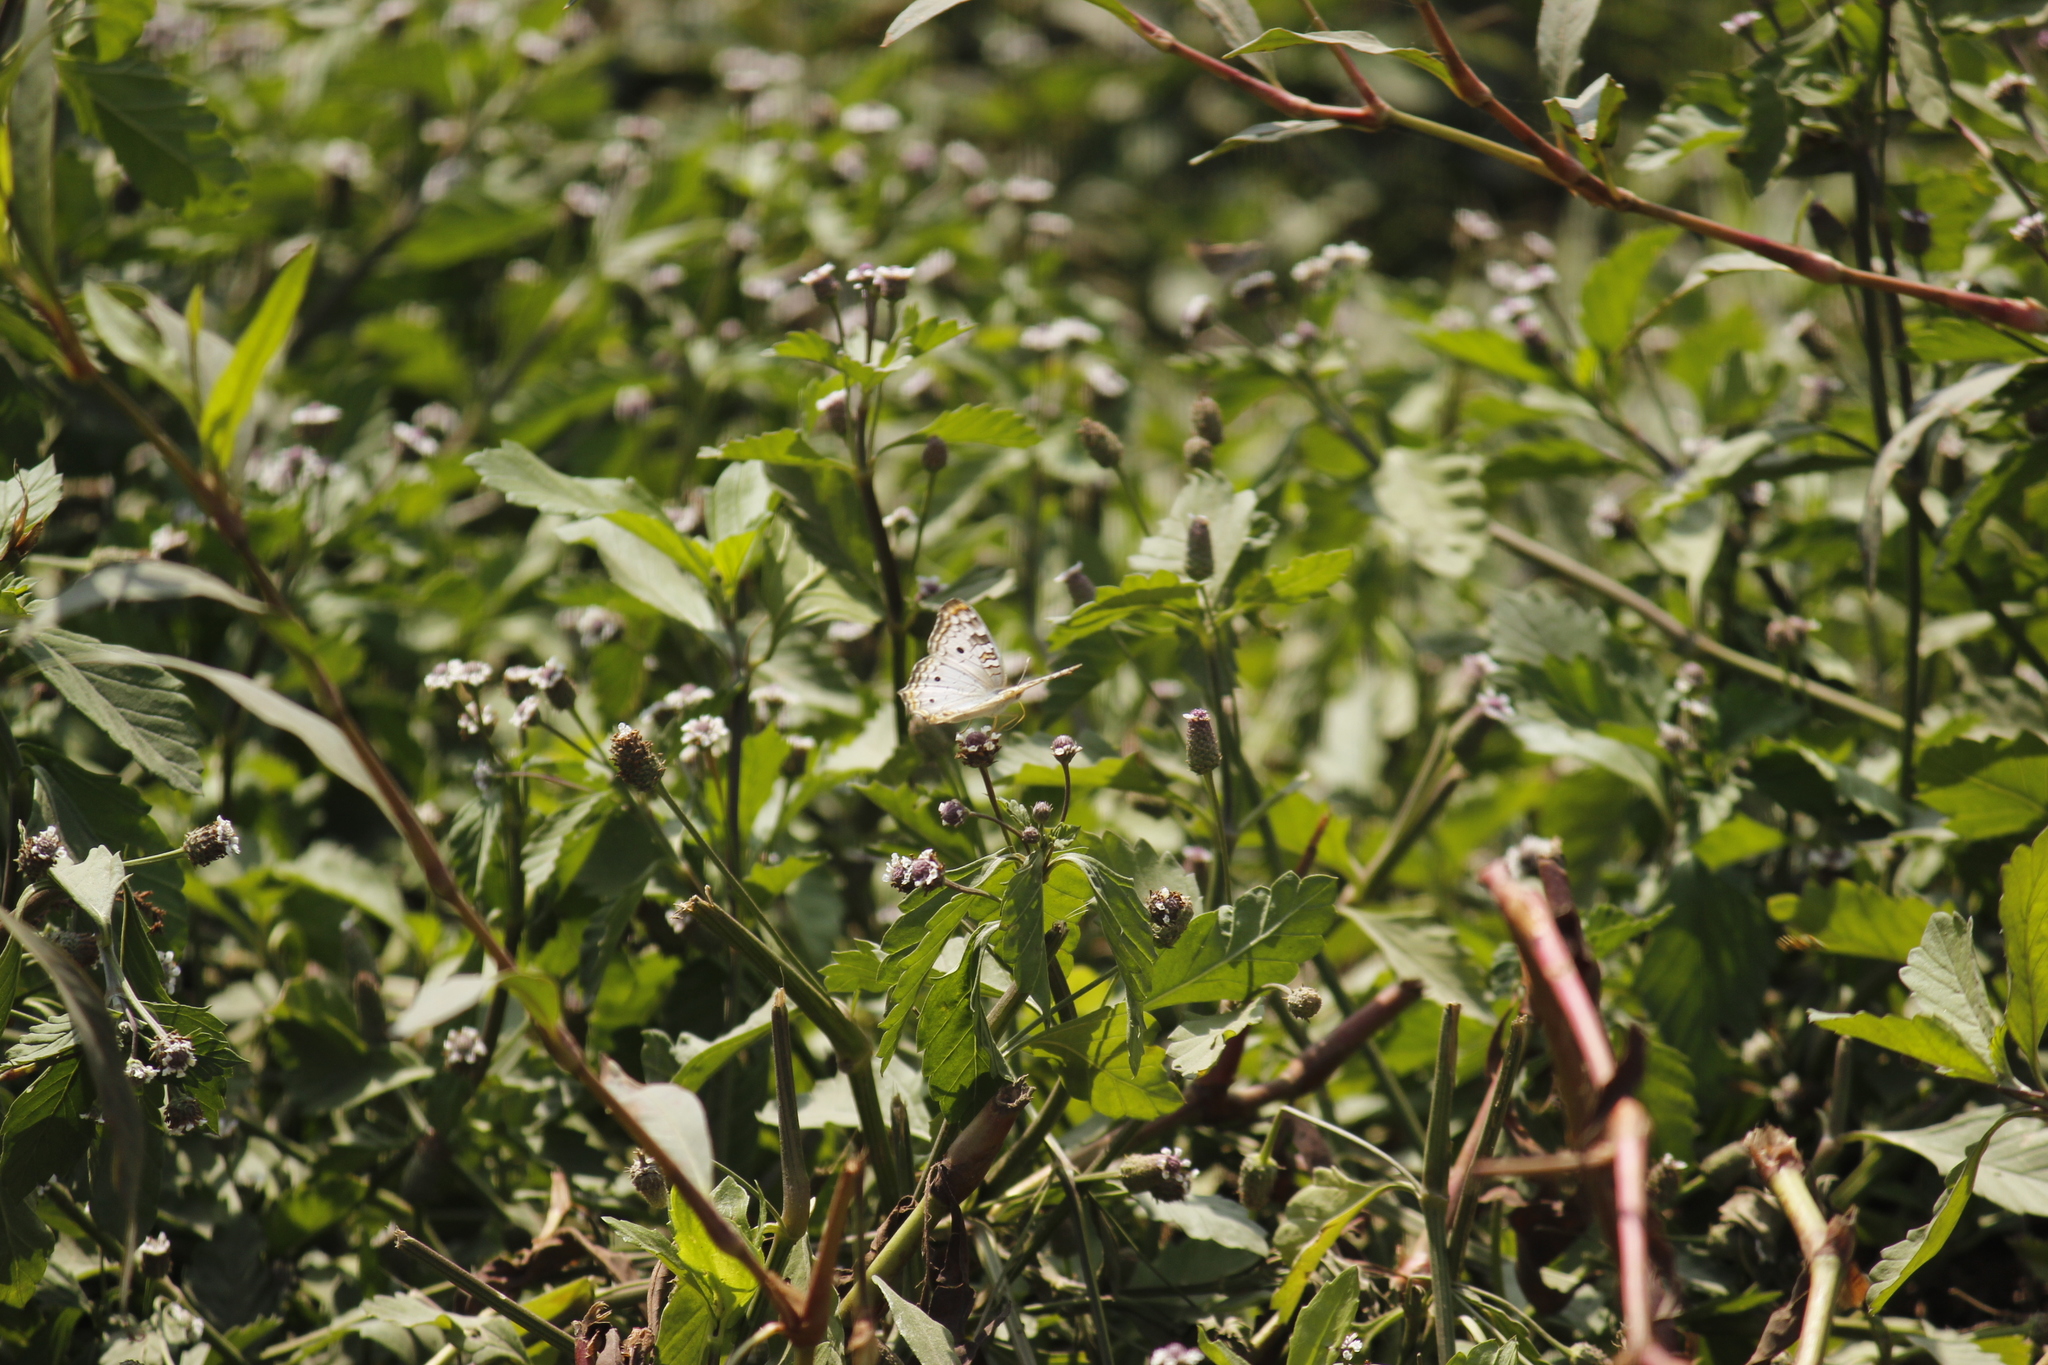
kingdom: Animalia
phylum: Arthropoda
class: Insecta
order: Lepidoptera
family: Nymphalidae
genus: Anartia
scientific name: Anartia jatrophae
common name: White peacock
